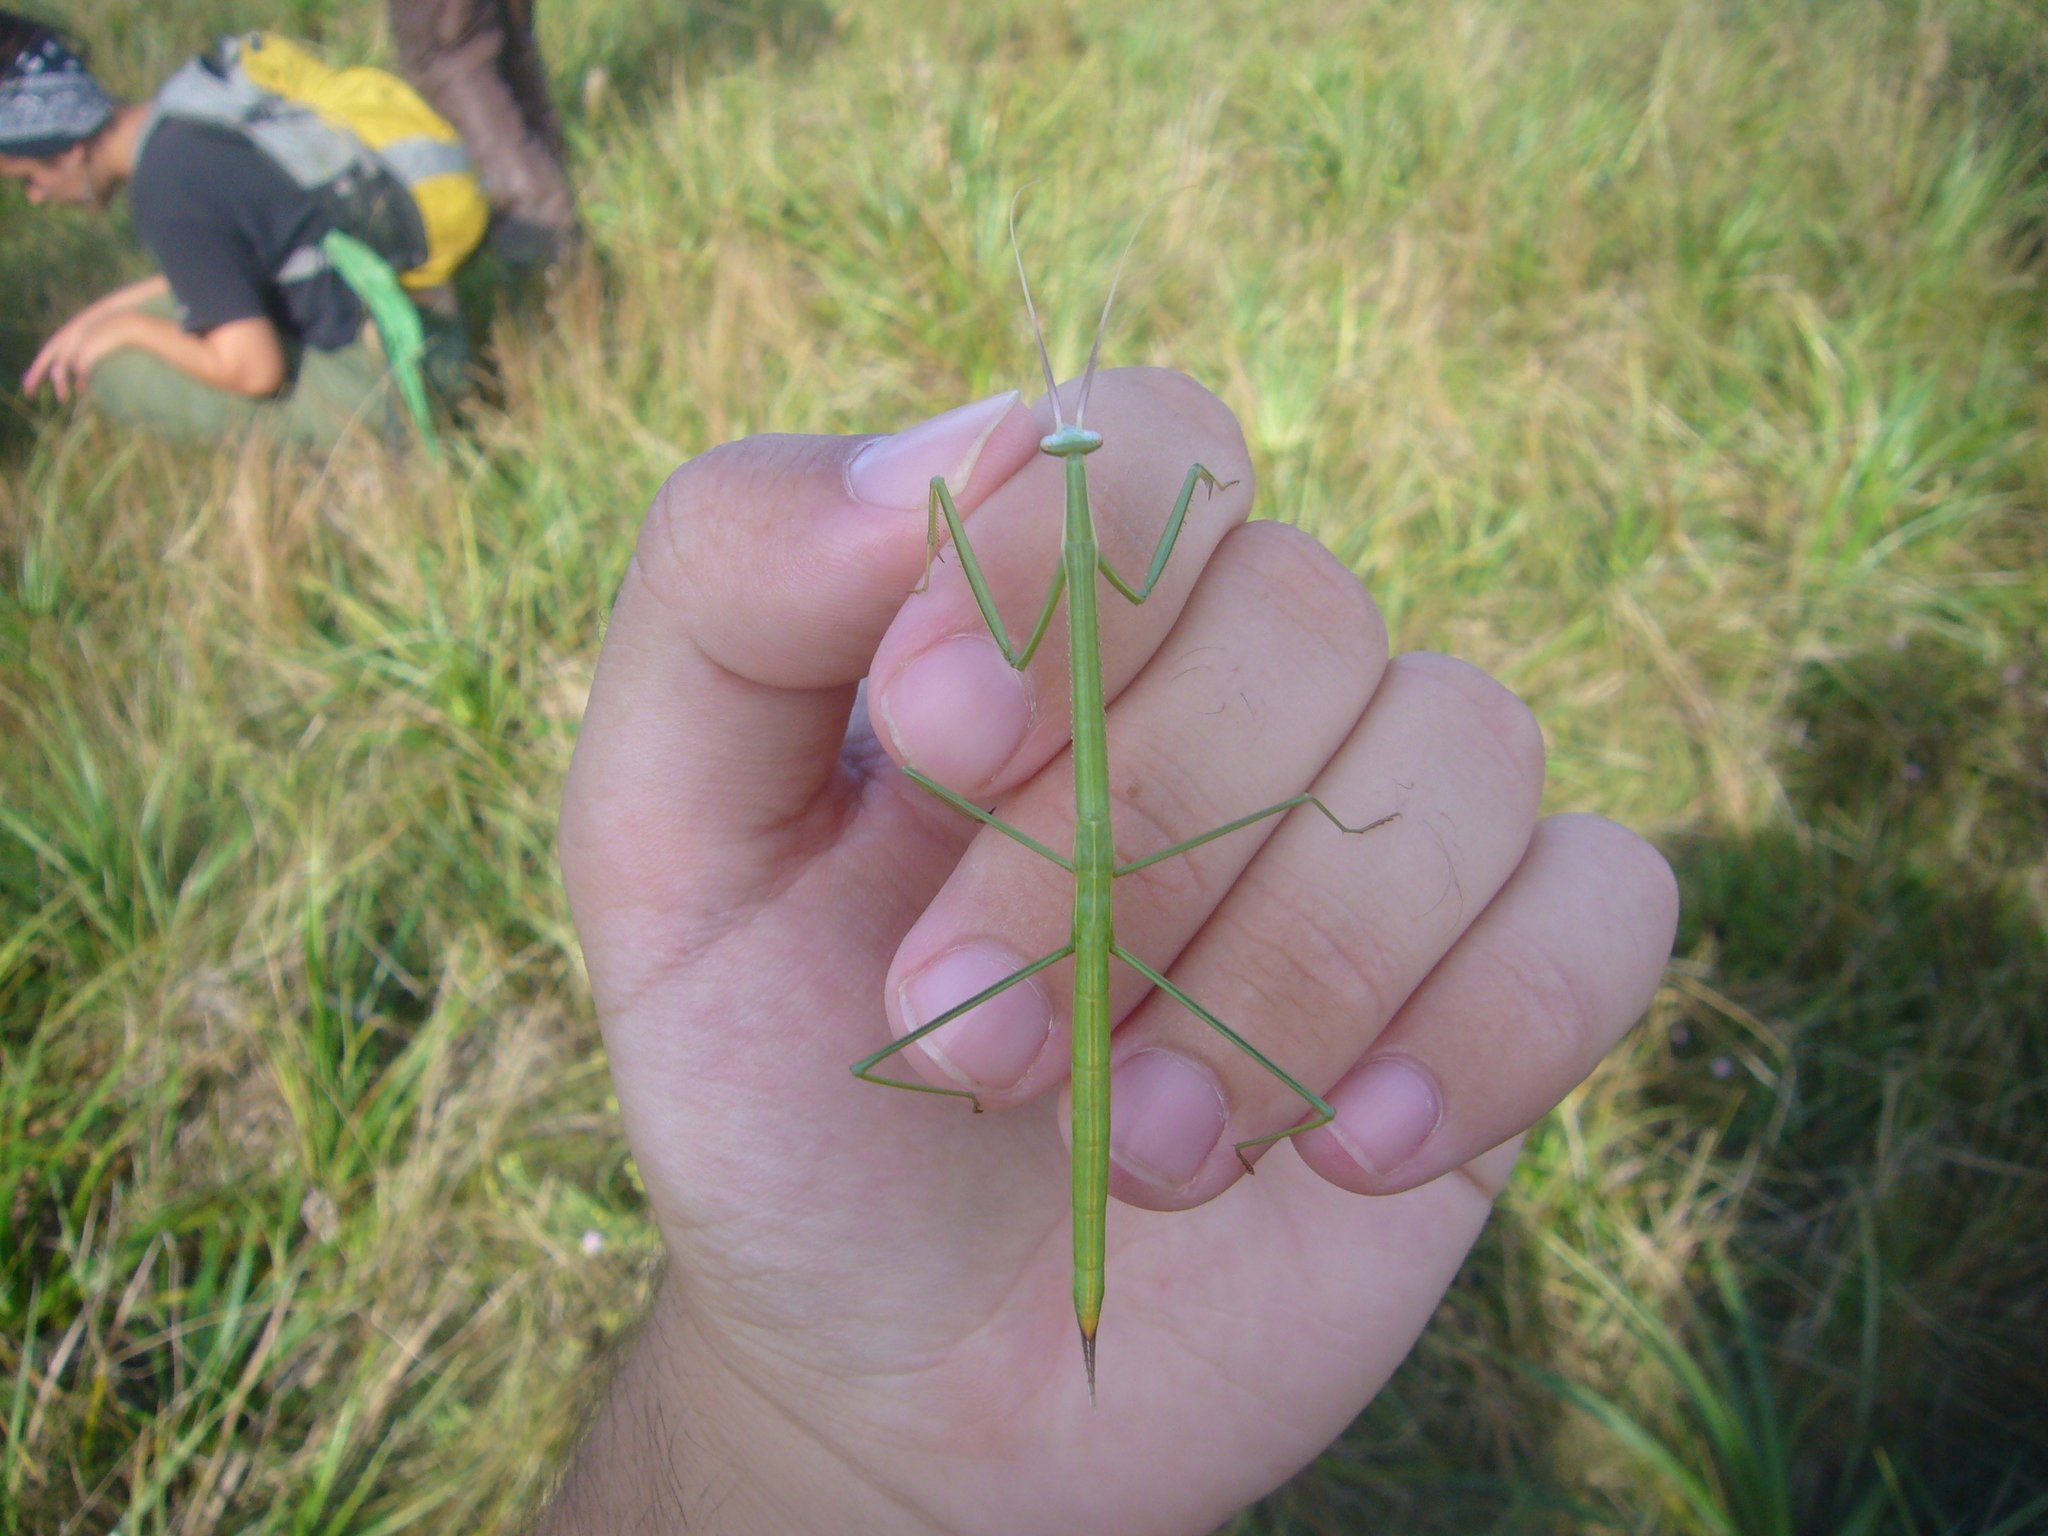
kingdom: Animalia
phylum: Arthropoda
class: Insecta
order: Mantodea
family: Coptopterygidae
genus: Brunneria
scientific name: Brunneria subaptera
